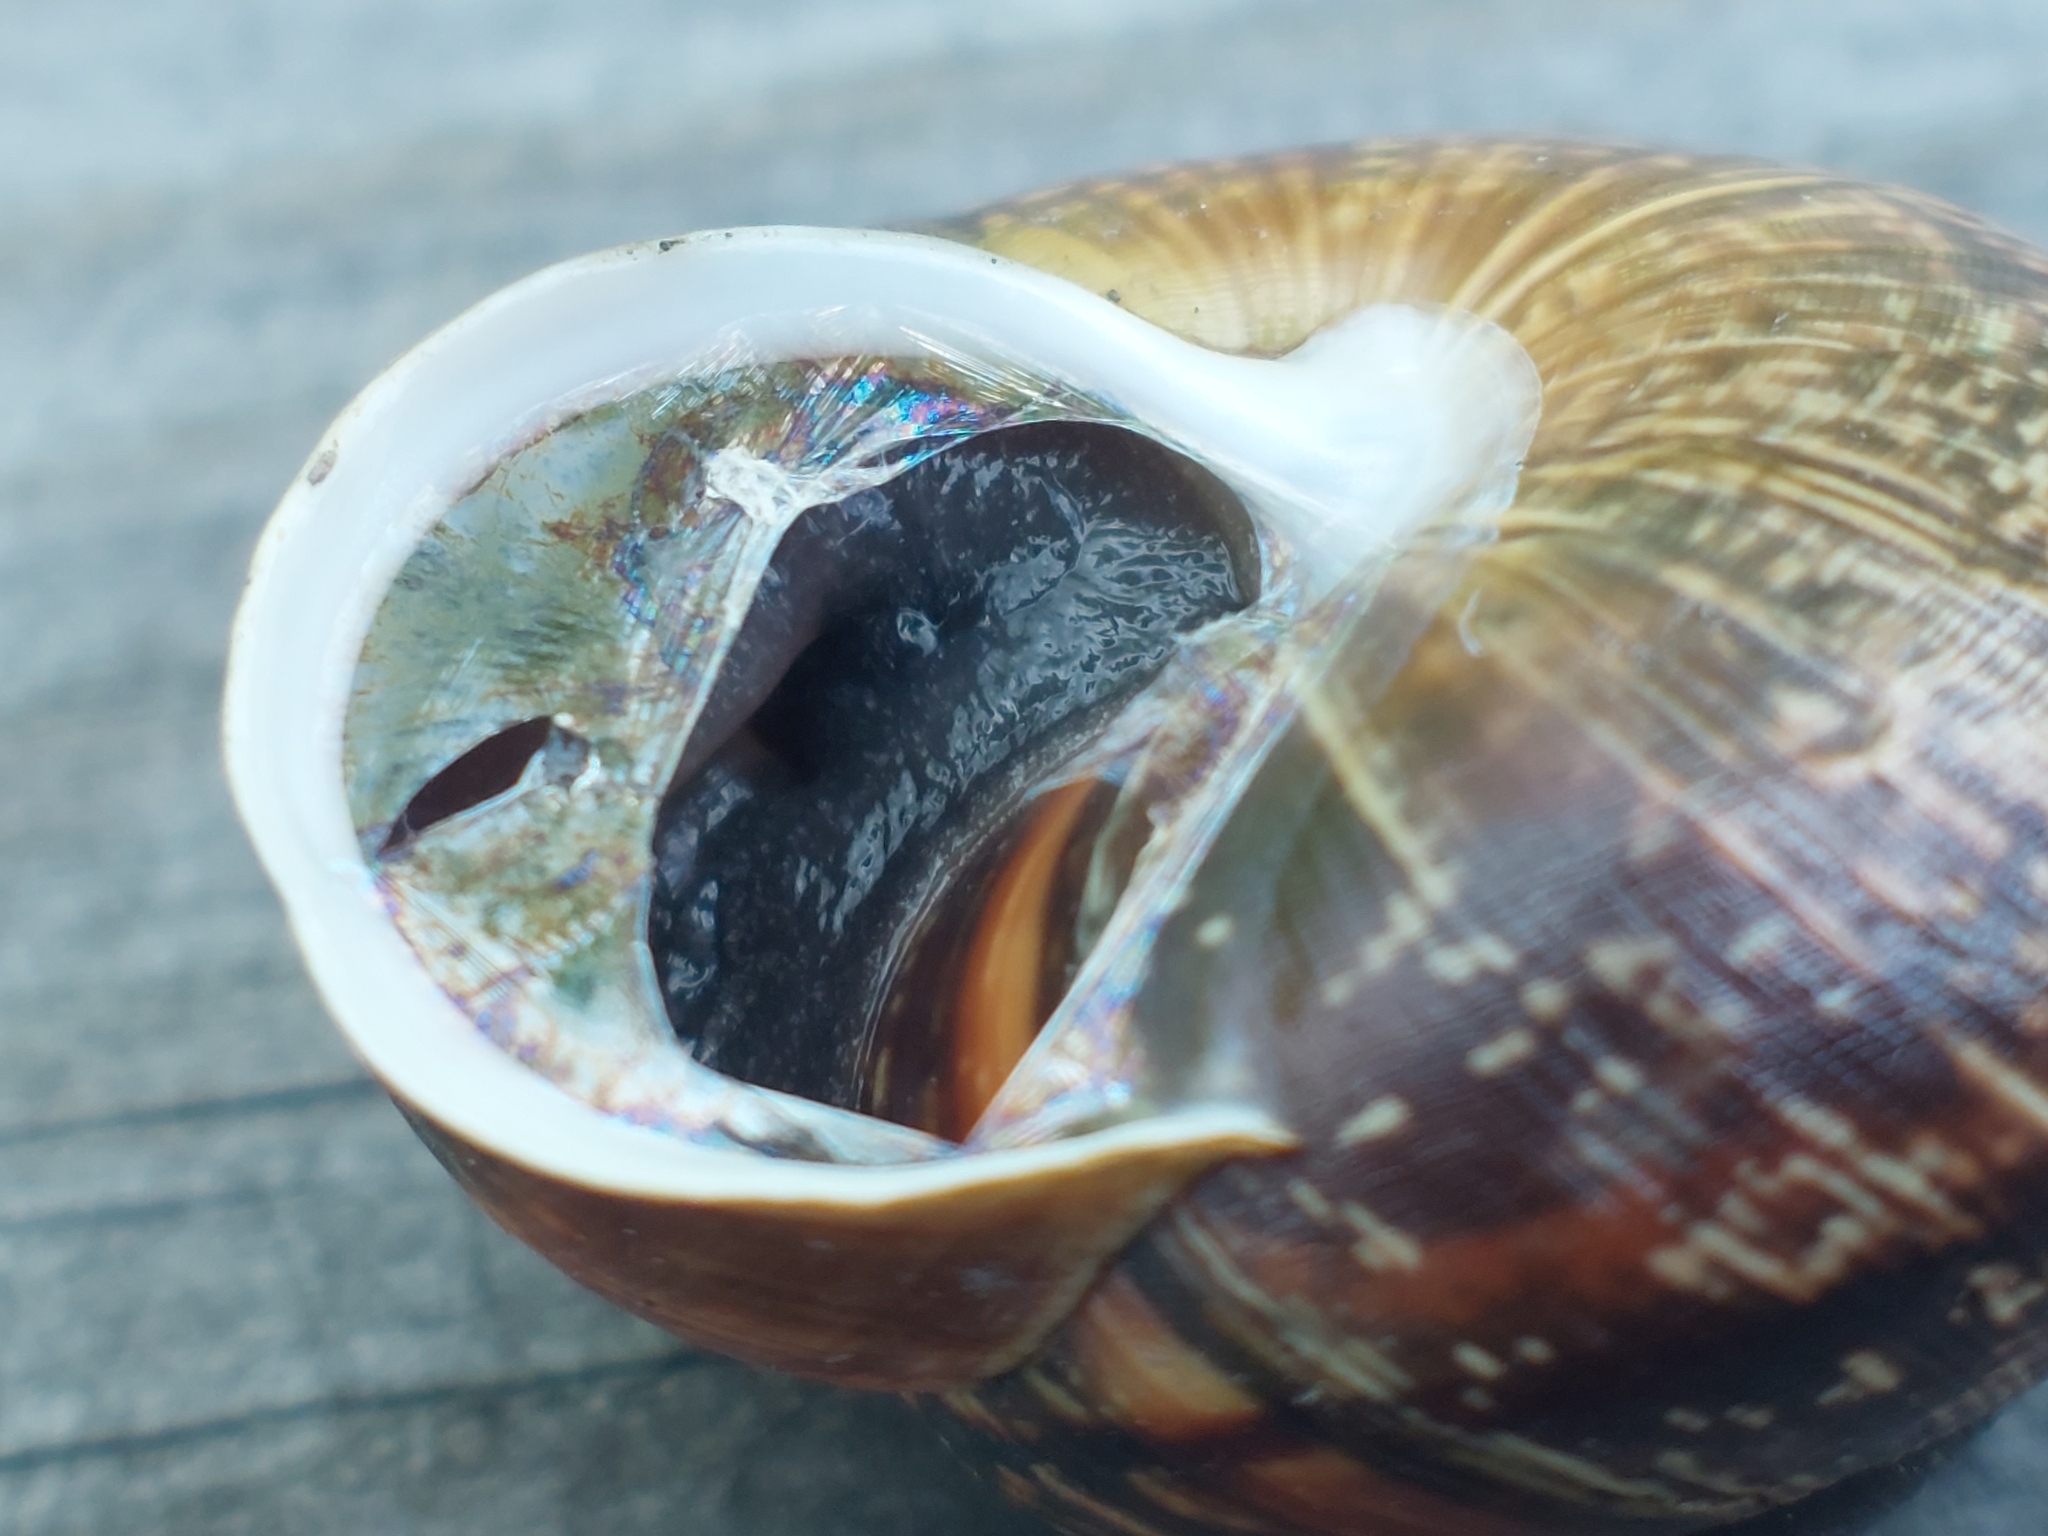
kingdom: Animalia
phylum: Mollusca
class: Gastropoda
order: Stylommatophora
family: Helicidae
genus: Arianta
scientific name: Arianta arbustorum
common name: Copse snail
